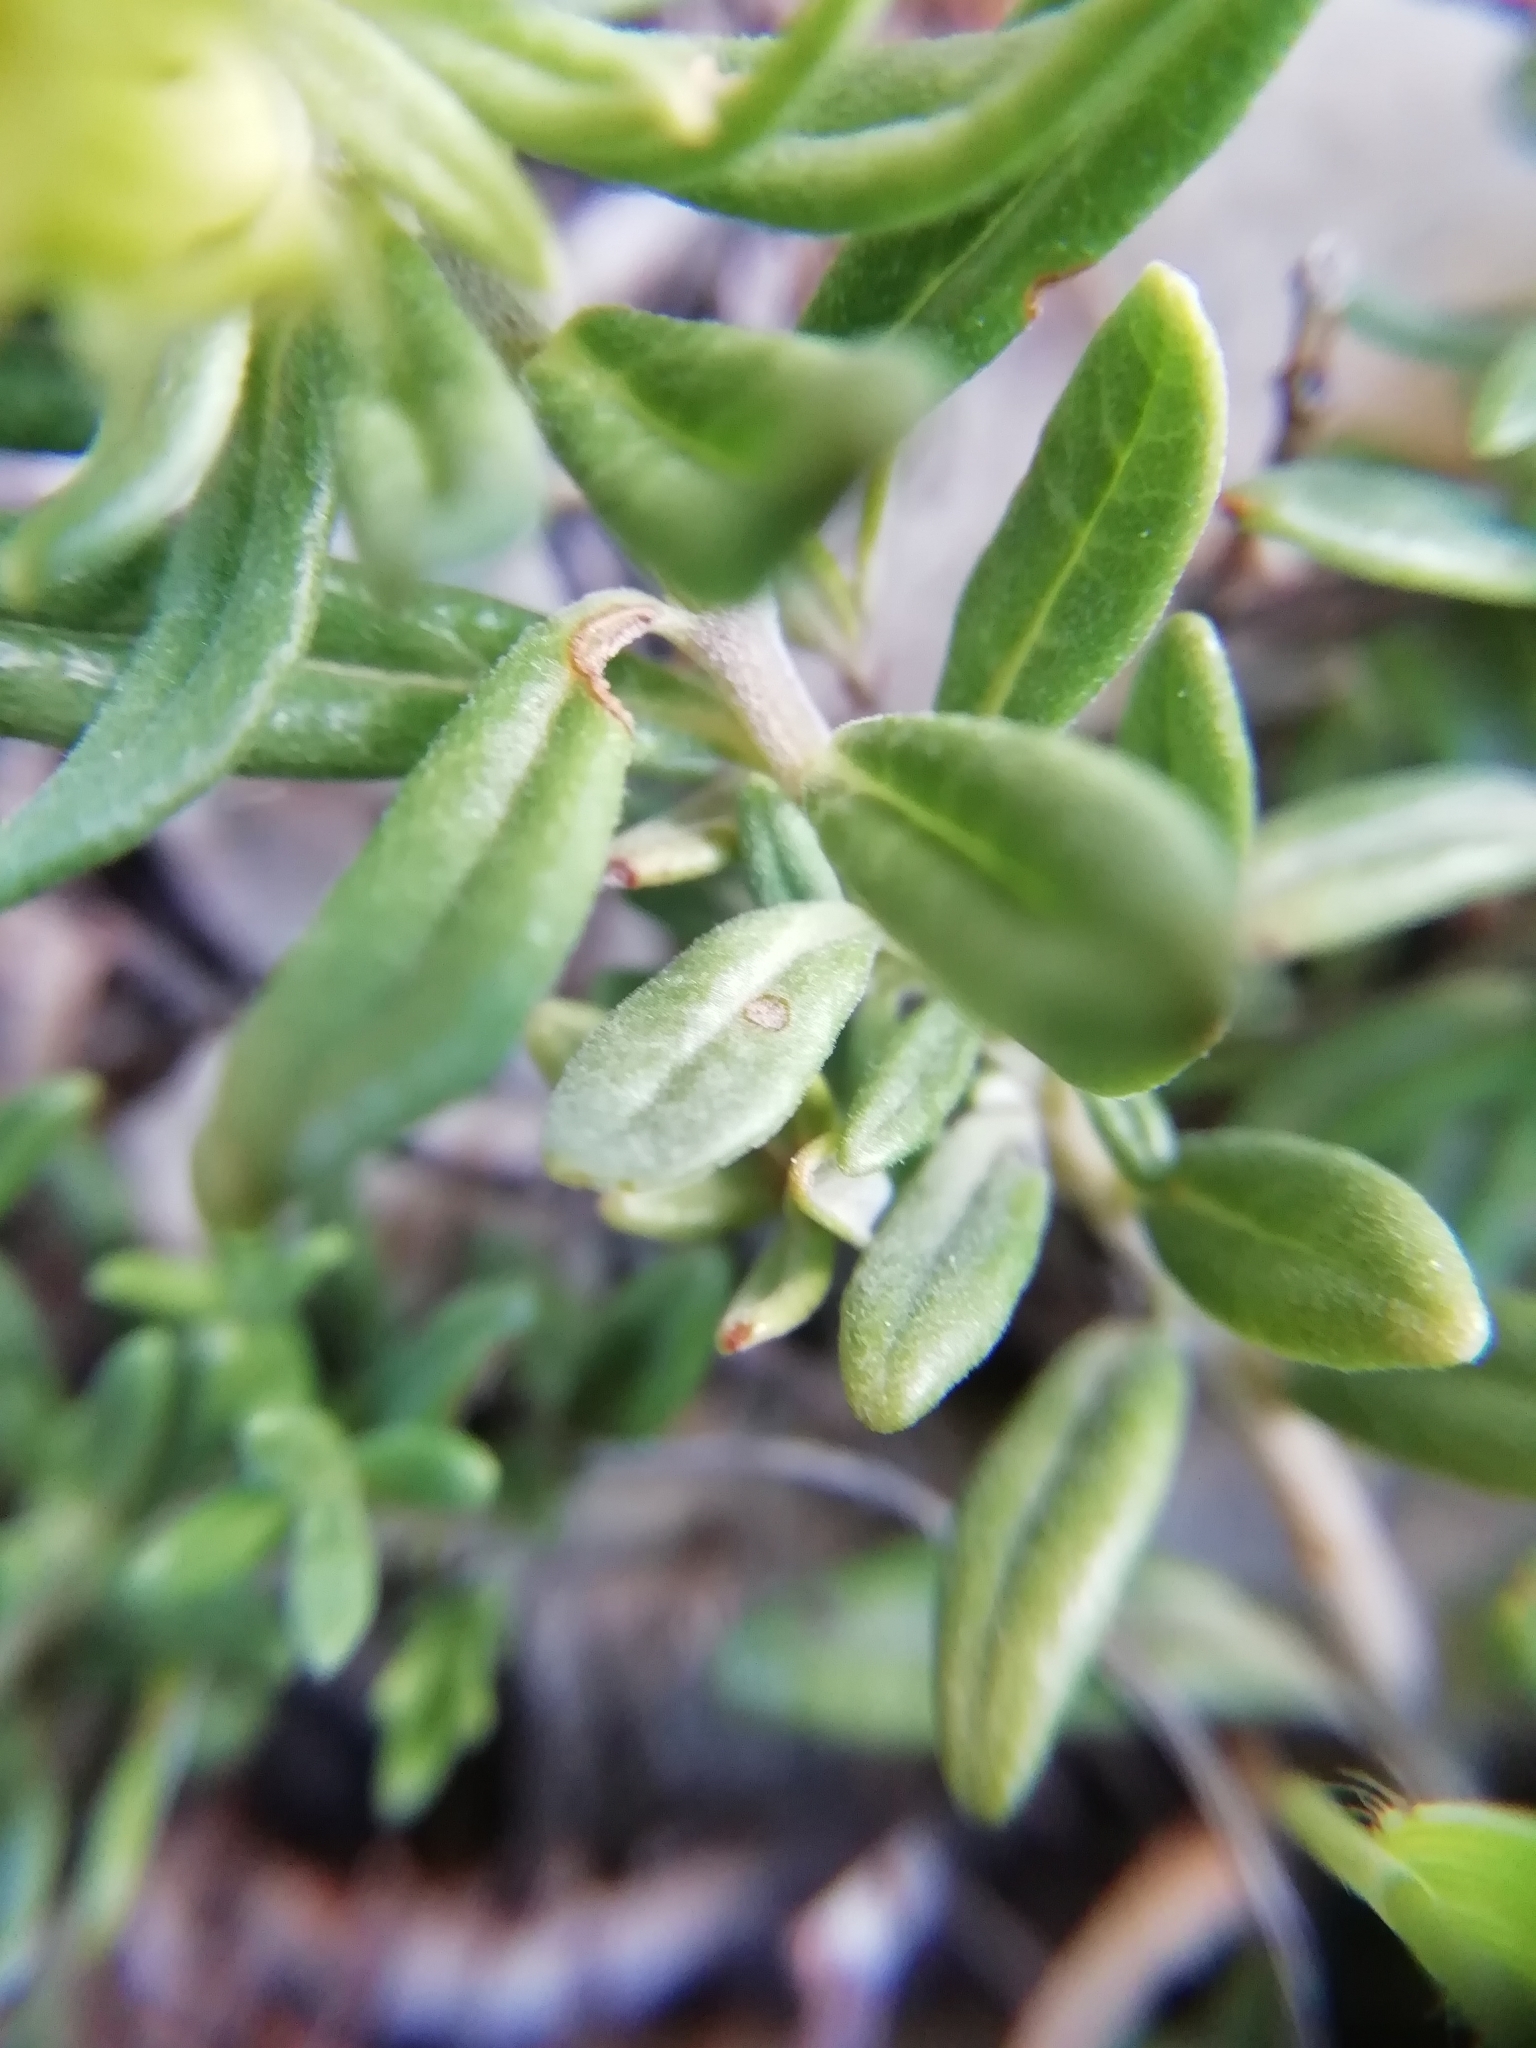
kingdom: Plantae
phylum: Tracheophyta
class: Magnoliopsida
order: Lamiales
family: Lamiaceae
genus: Teucrium
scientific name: Teucrium montanum
